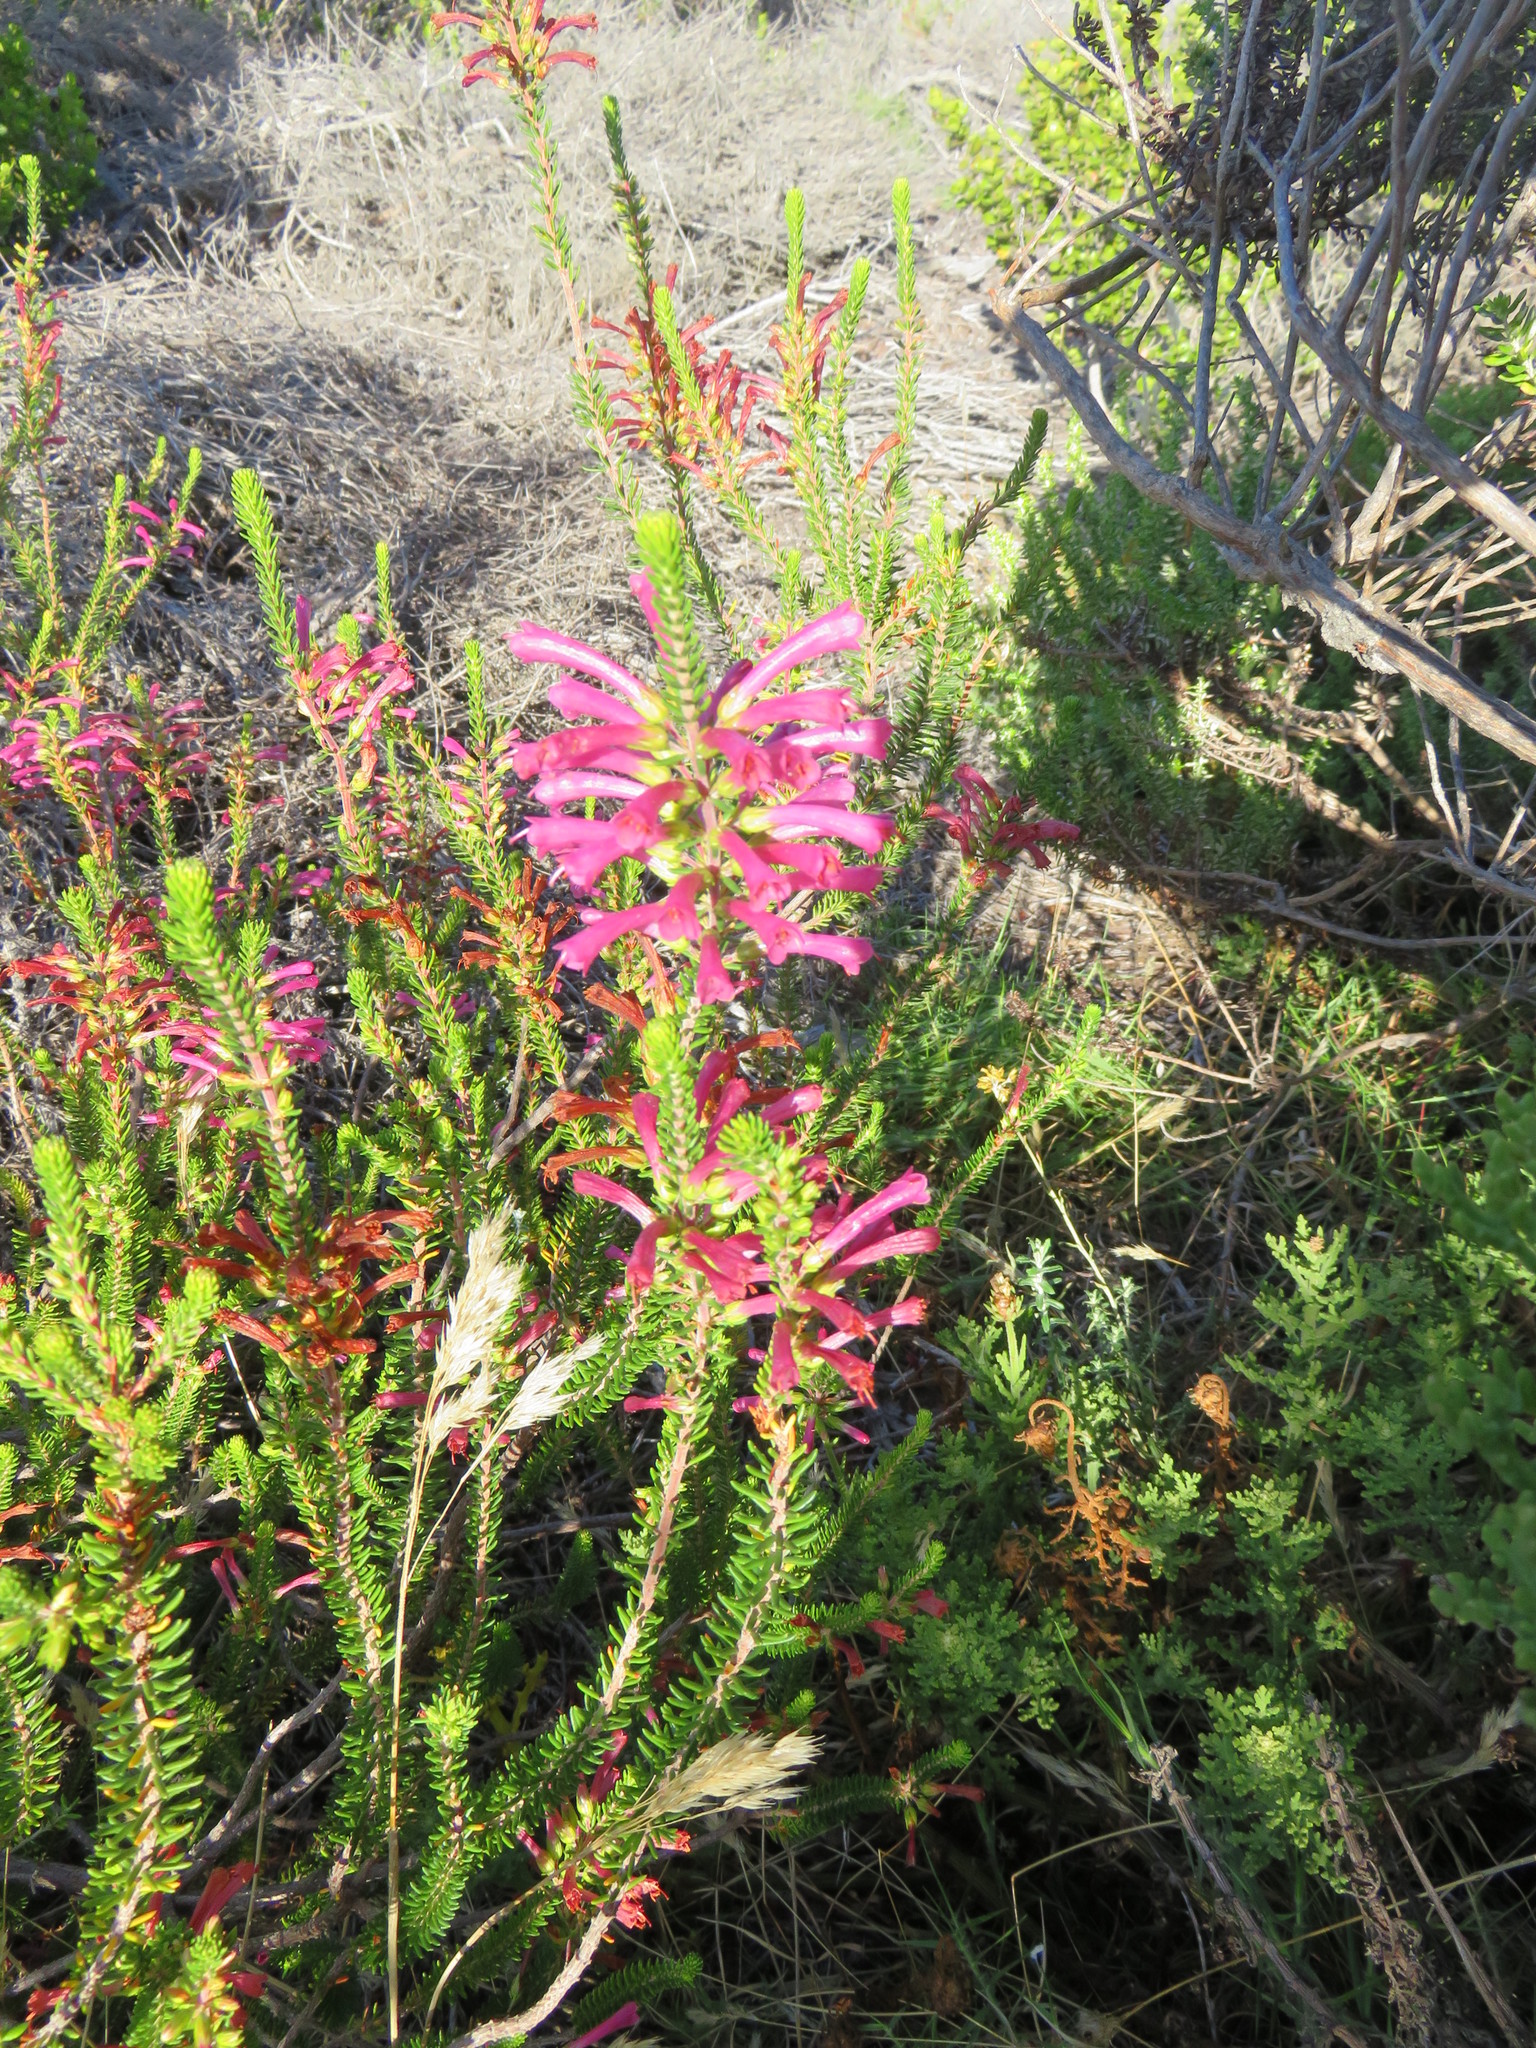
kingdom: Plantae
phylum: Tracheophyta
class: Magnoliopsida
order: Ericales
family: Ericaceae
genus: Erica
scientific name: Erica abietina
